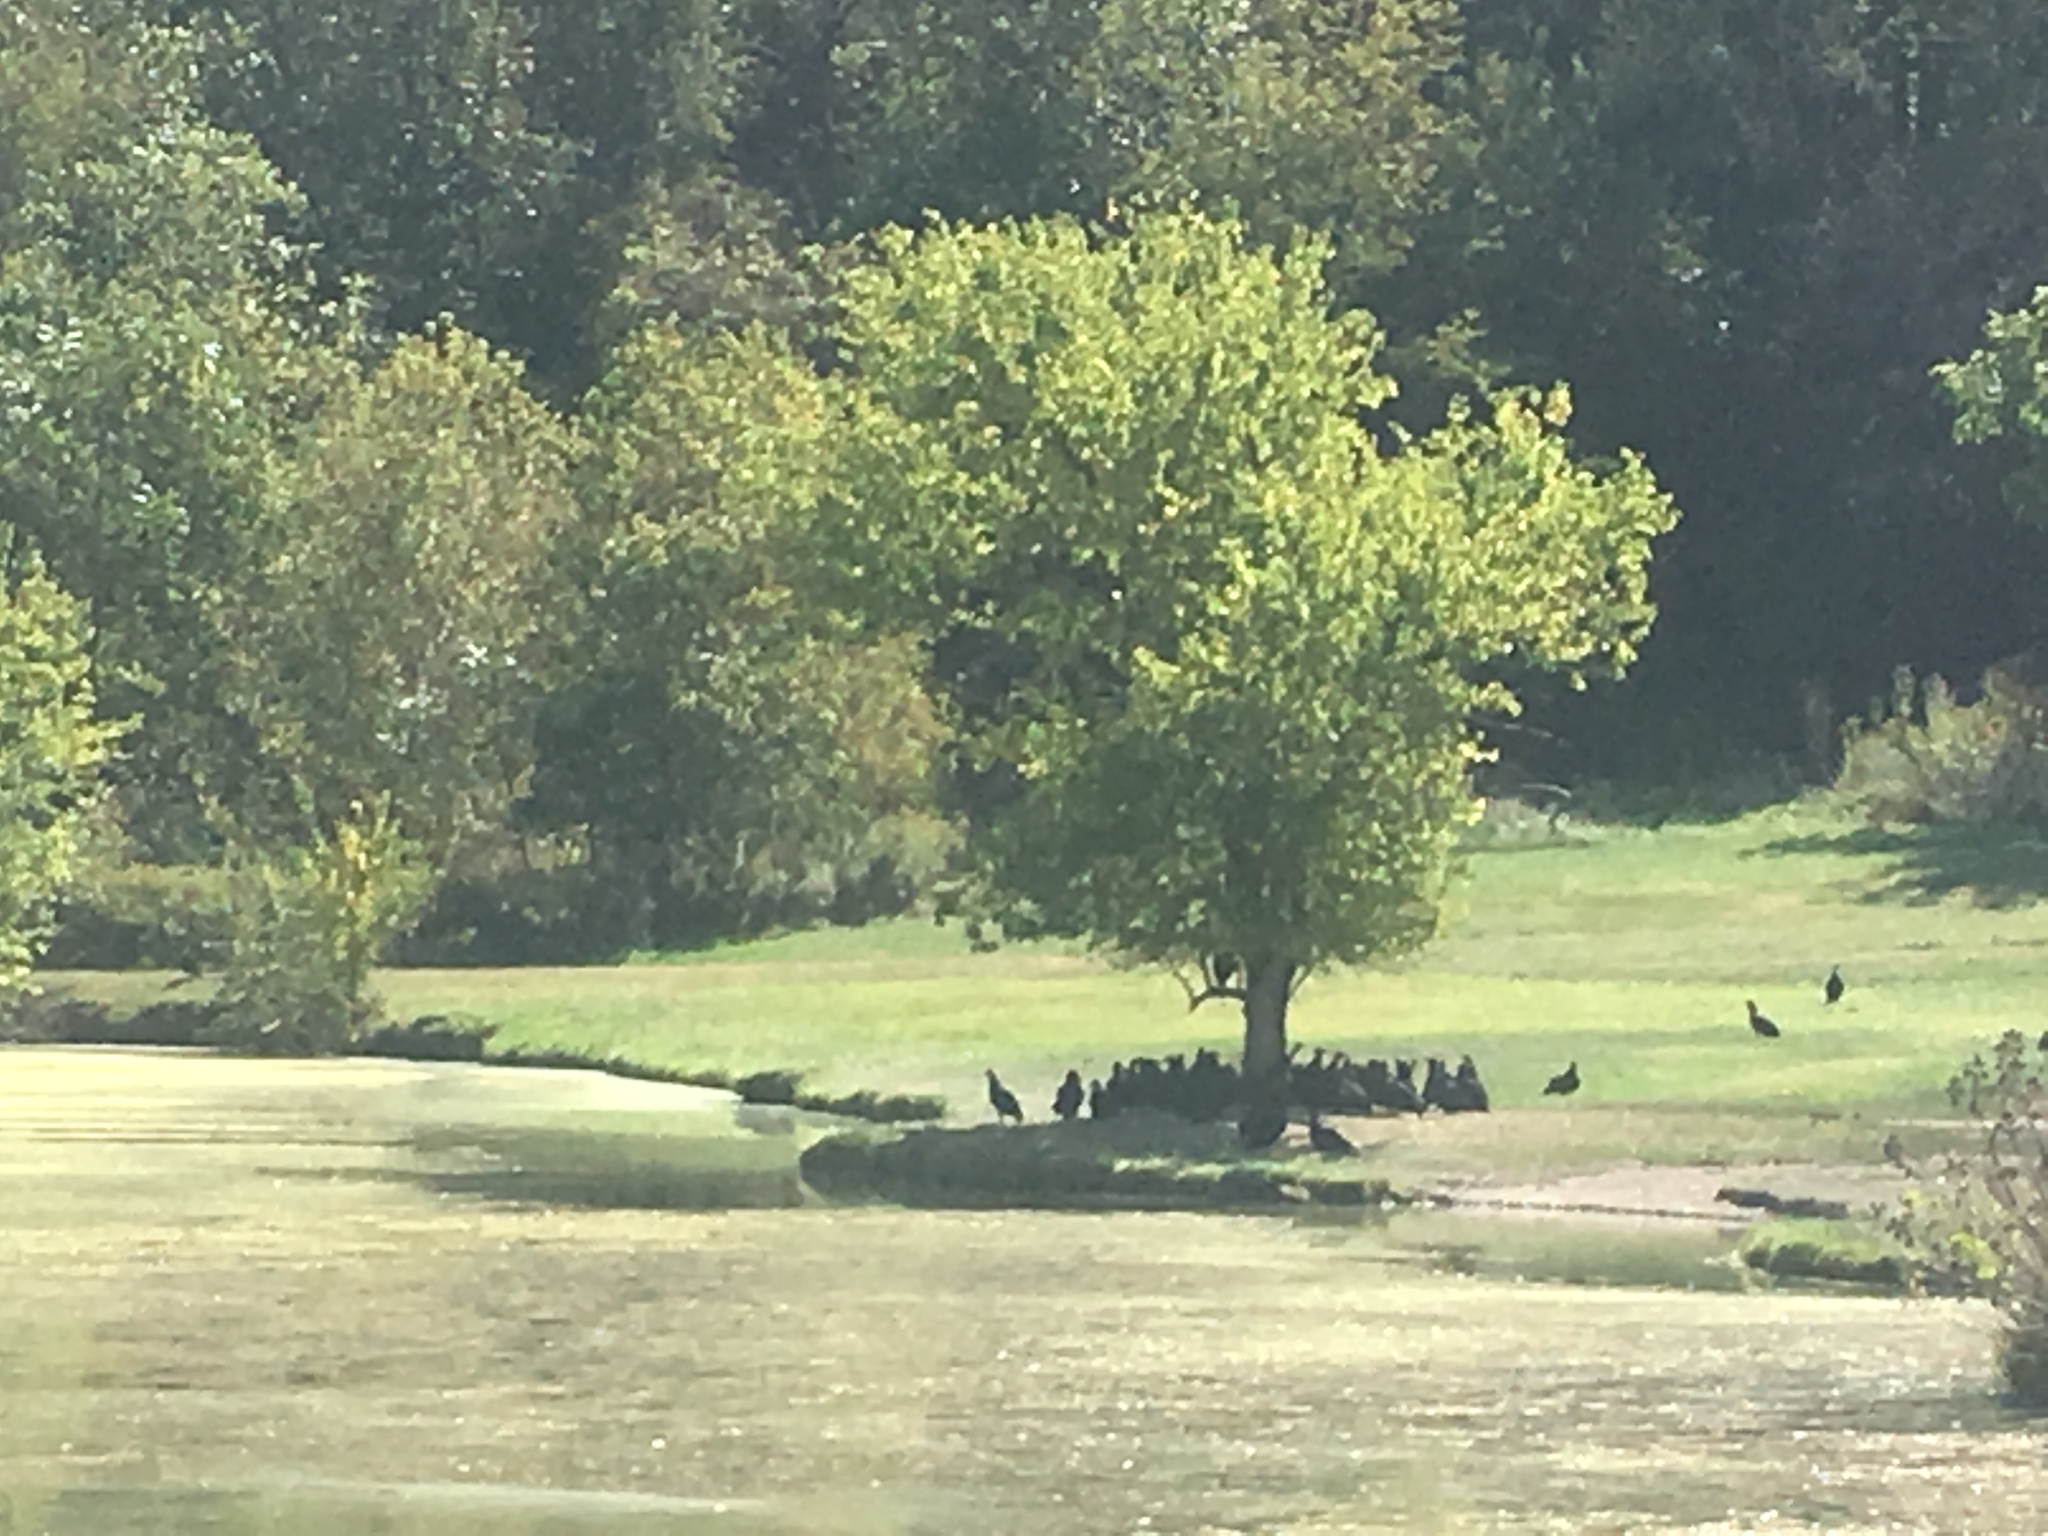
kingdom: Animalia
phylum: Chordata
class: Aves
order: Accipitriformes
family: Cathartidae
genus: Cathartes
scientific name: Cathartes aura
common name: Turkey vulture
